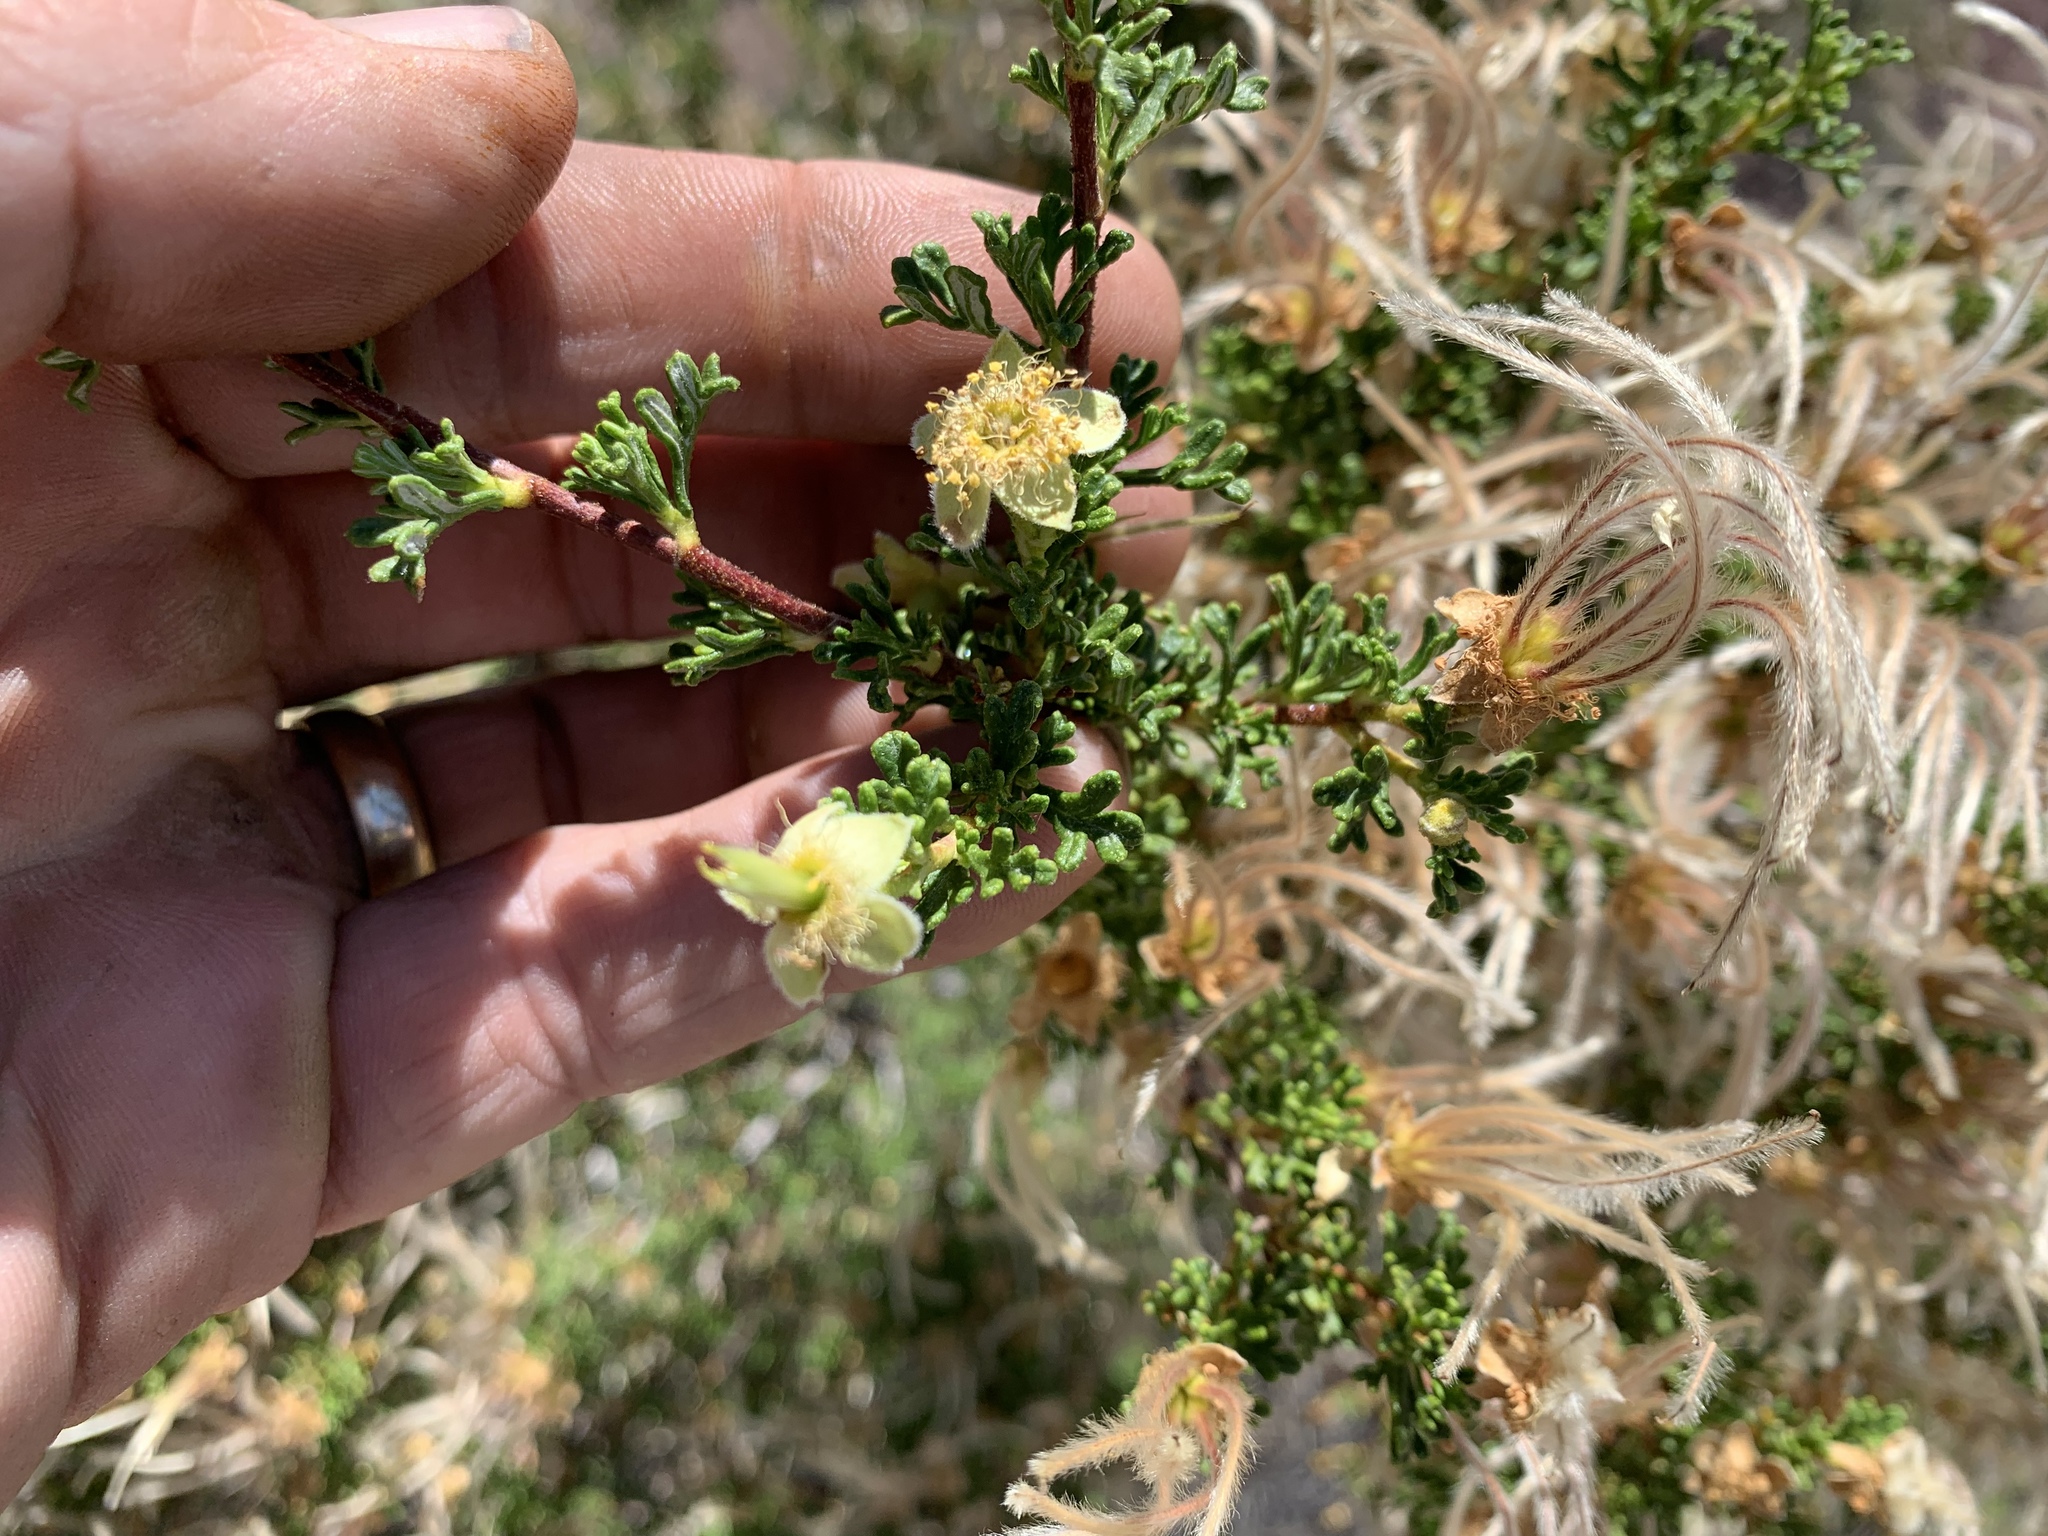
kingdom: Plantae
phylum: Tracheophyta
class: Magnoliopsida
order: Rosales
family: Rosaceae
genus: Purshia
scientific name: Purshia stansburiana
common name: Stansbury's cliffrose
